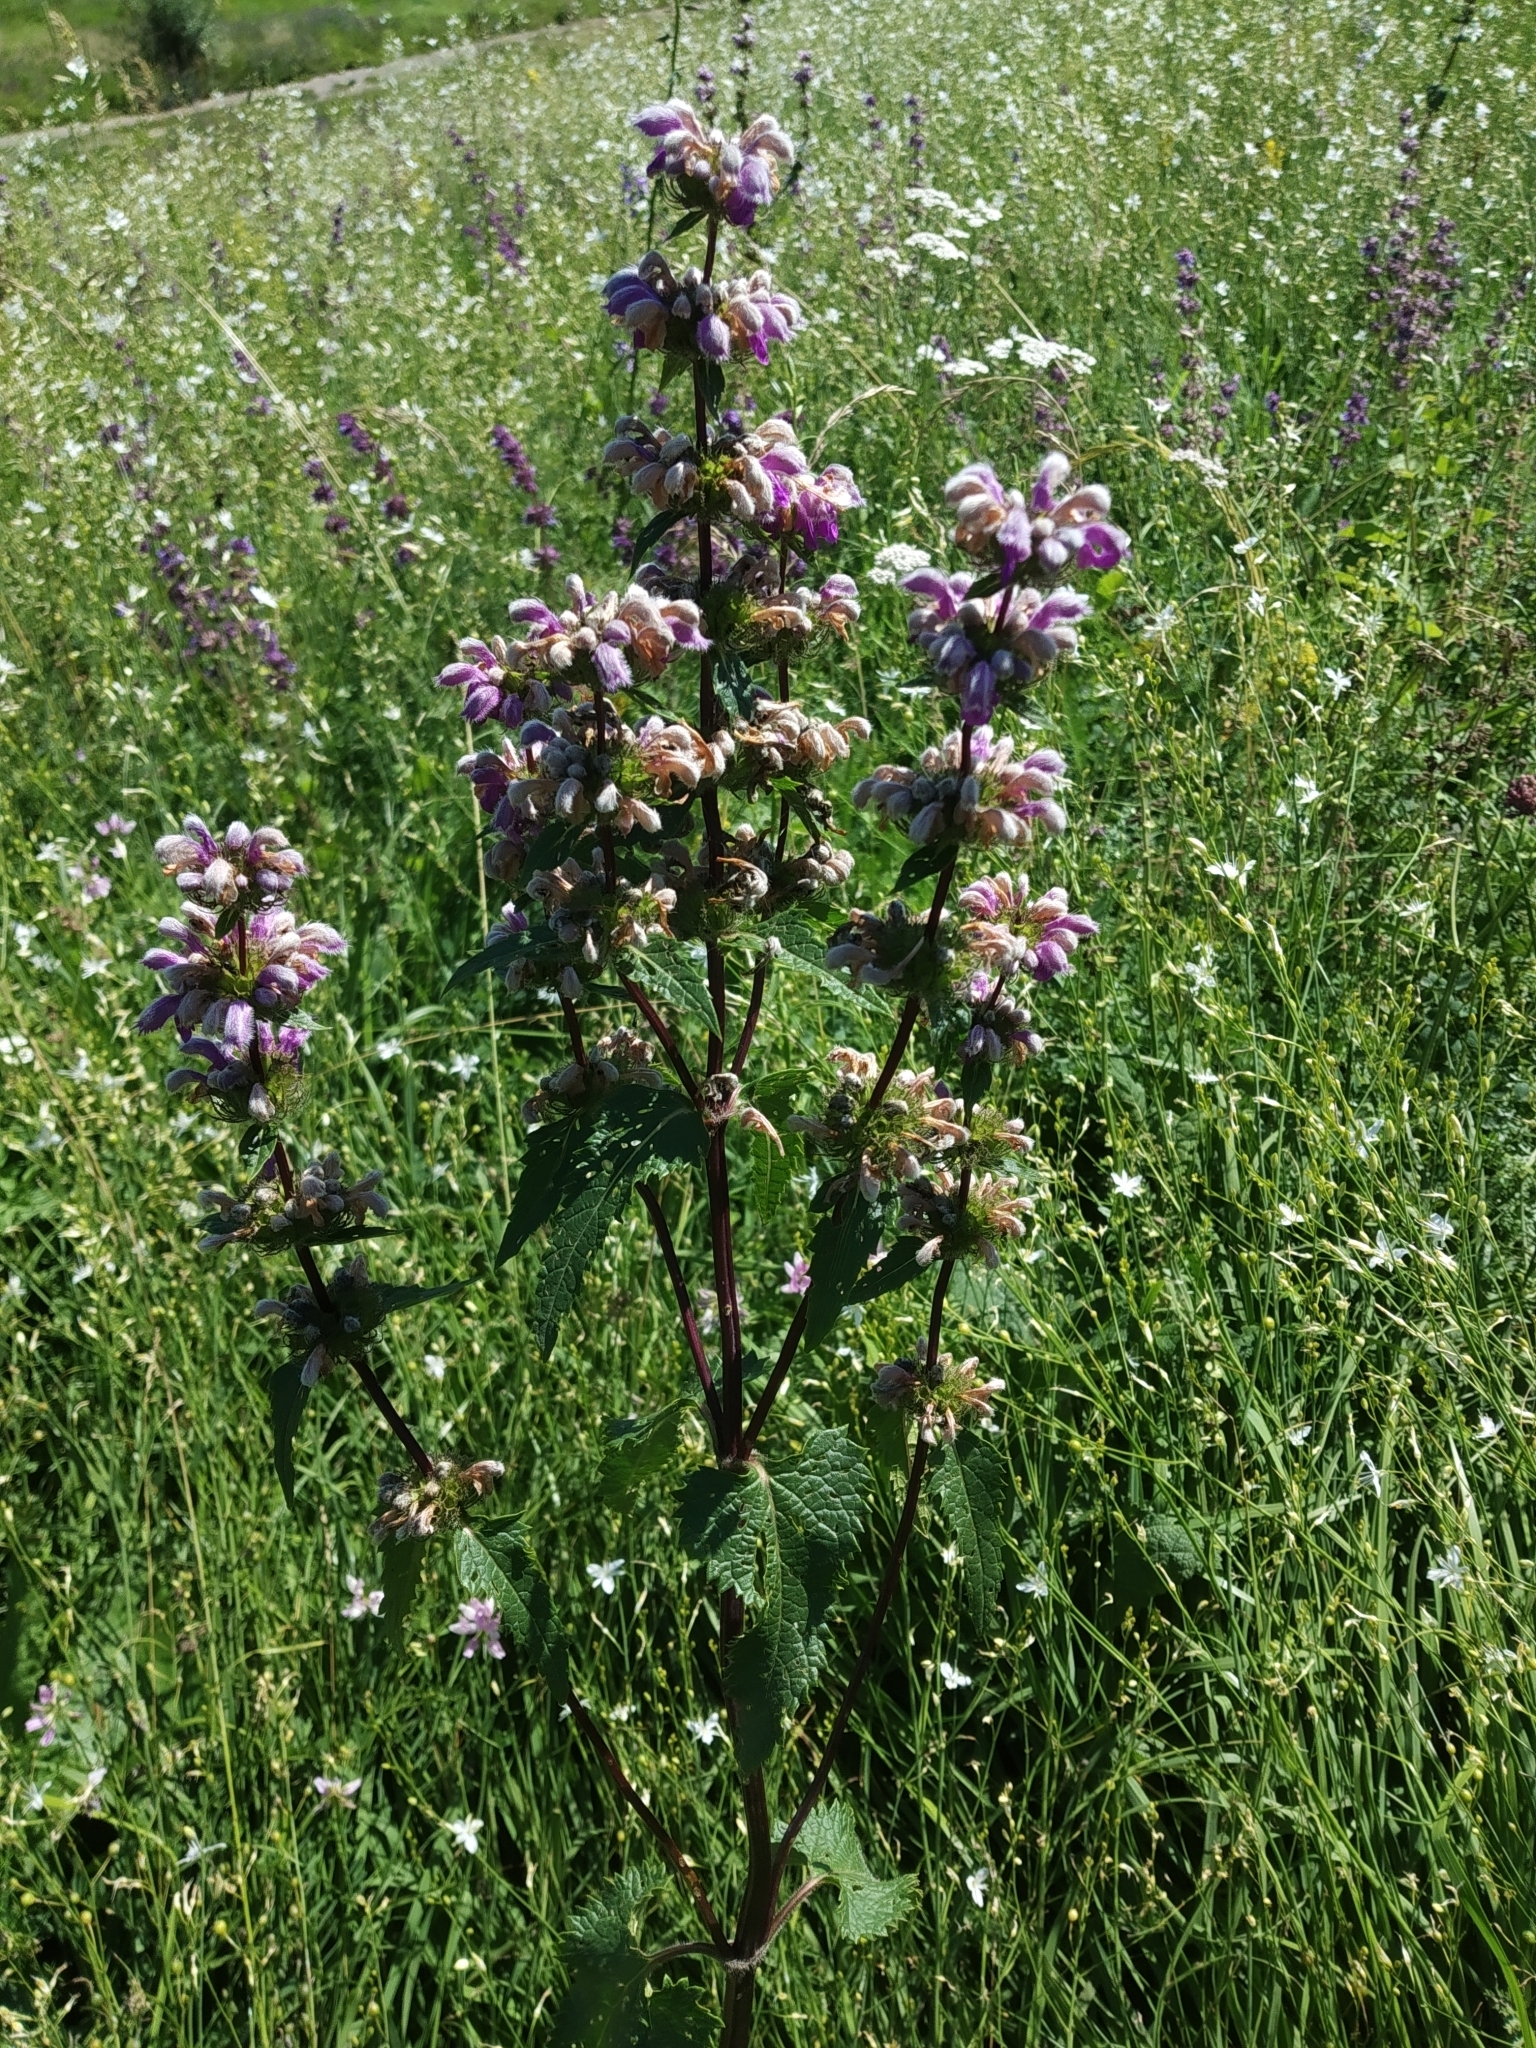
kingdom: Plantae
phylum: Tracheophyta
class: Magnoliopsida
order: Lamiales
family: Lamiaceae
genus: Phlomoides
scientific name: Phlomoides tuberosa
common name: Tuberous jerusalem sage
